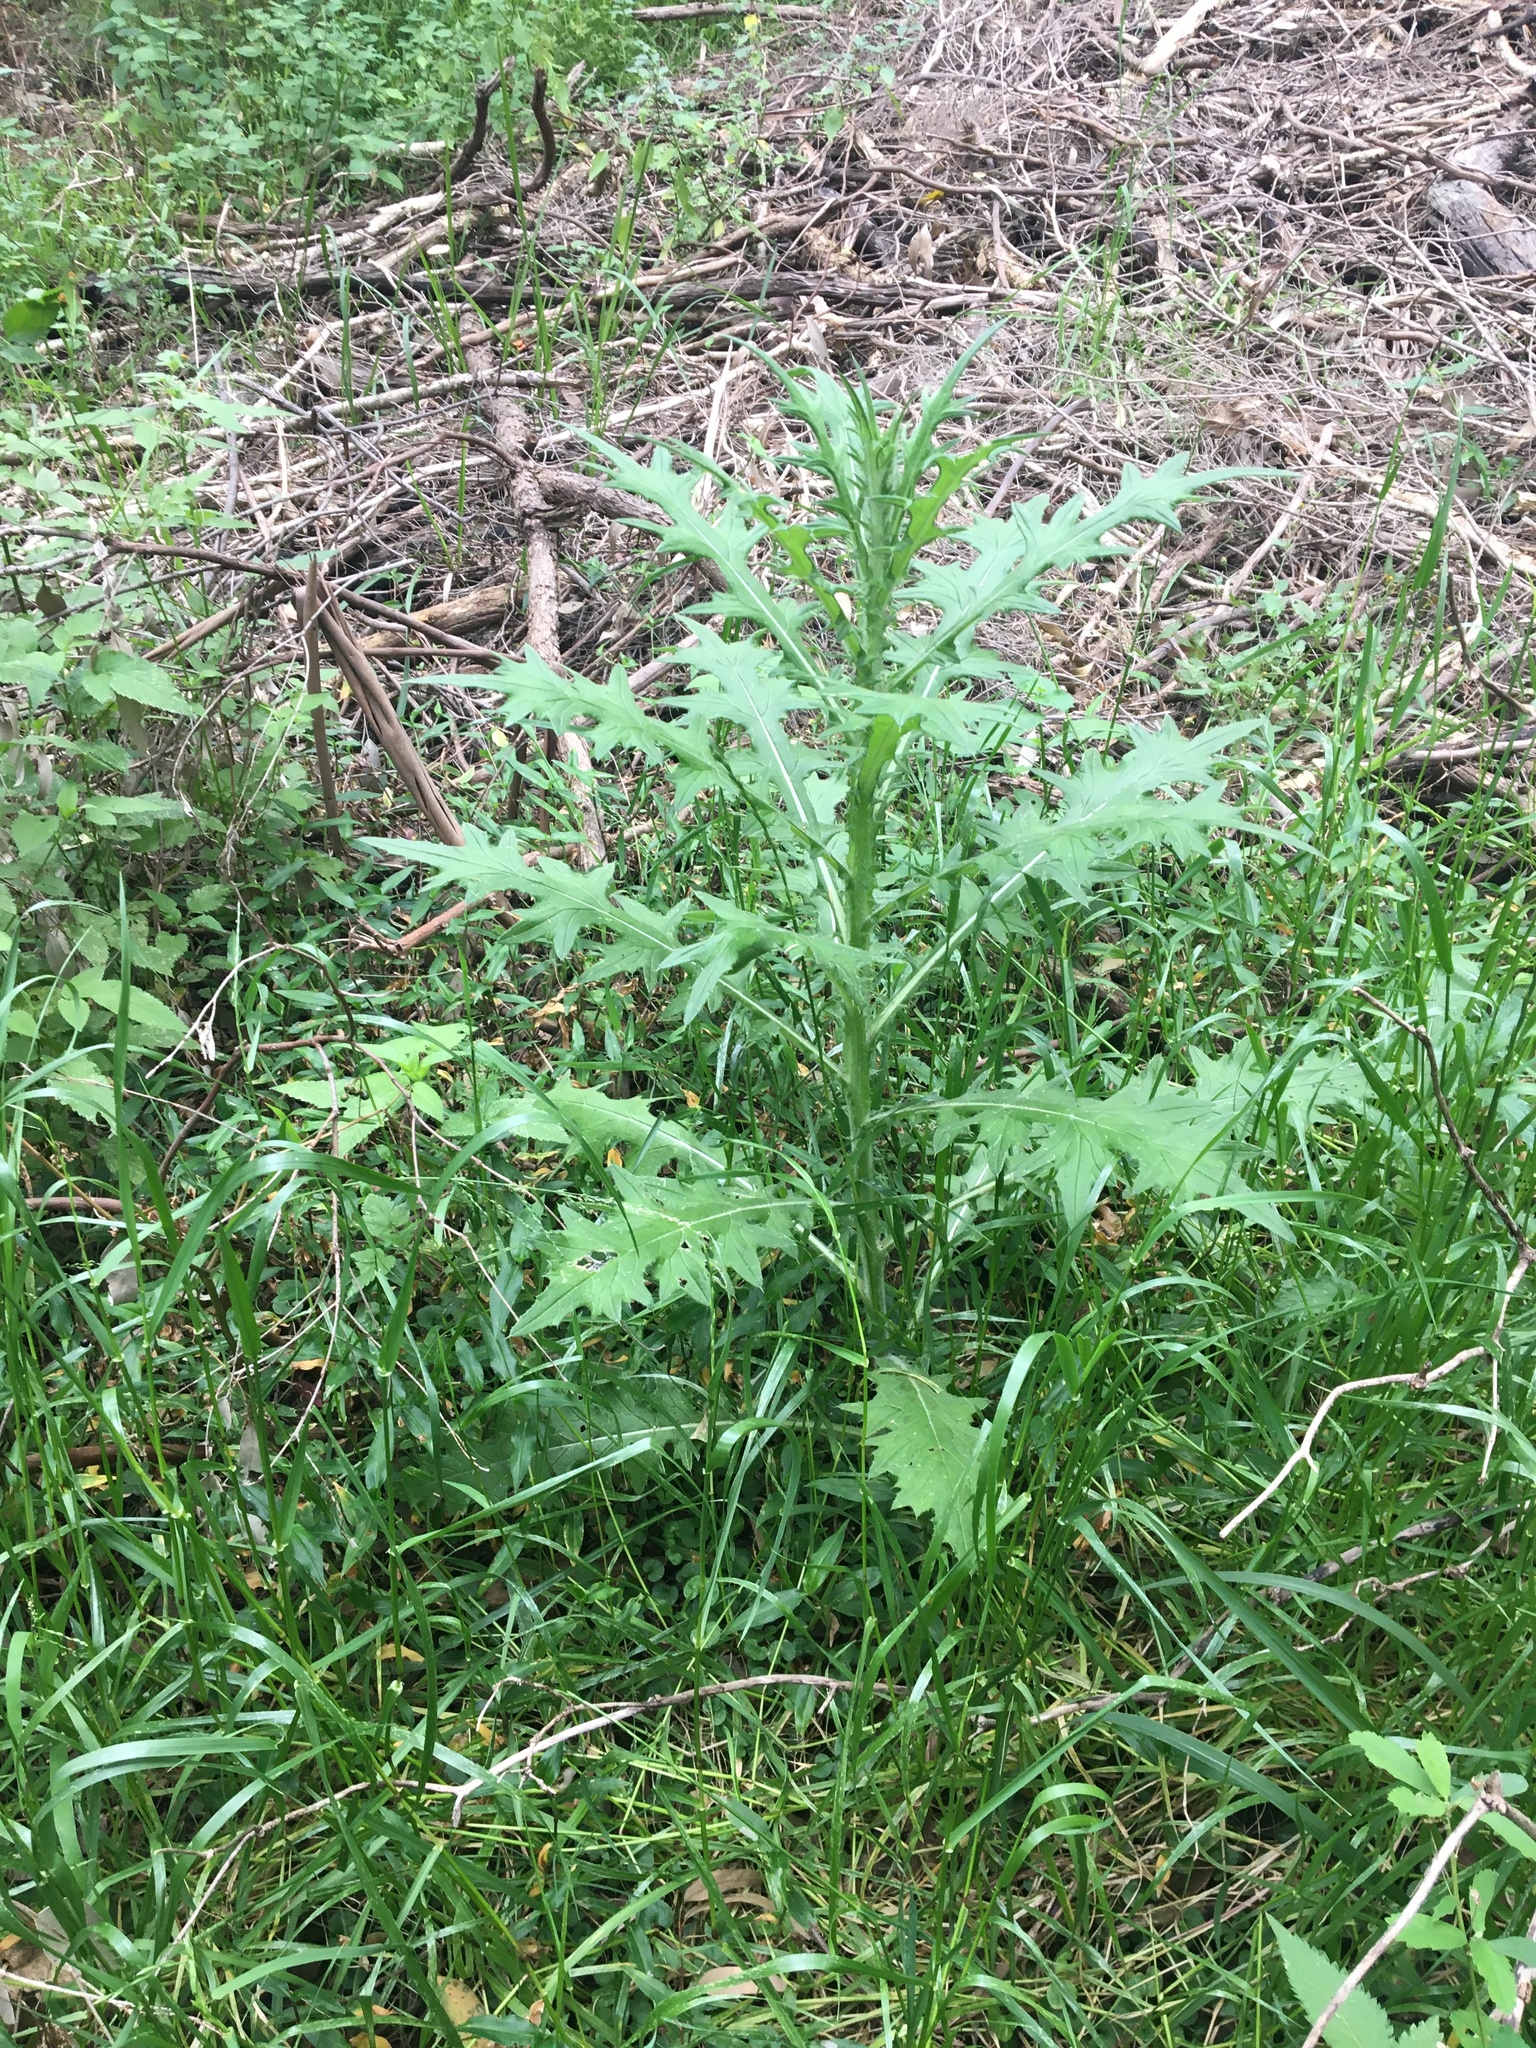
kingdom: Plantae
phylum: Tracheophyta
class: Magnoliopsida
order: Asterales
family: Asteraceae
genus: Cirsium
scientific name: Cirsium vulgare
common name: Bull thistle
